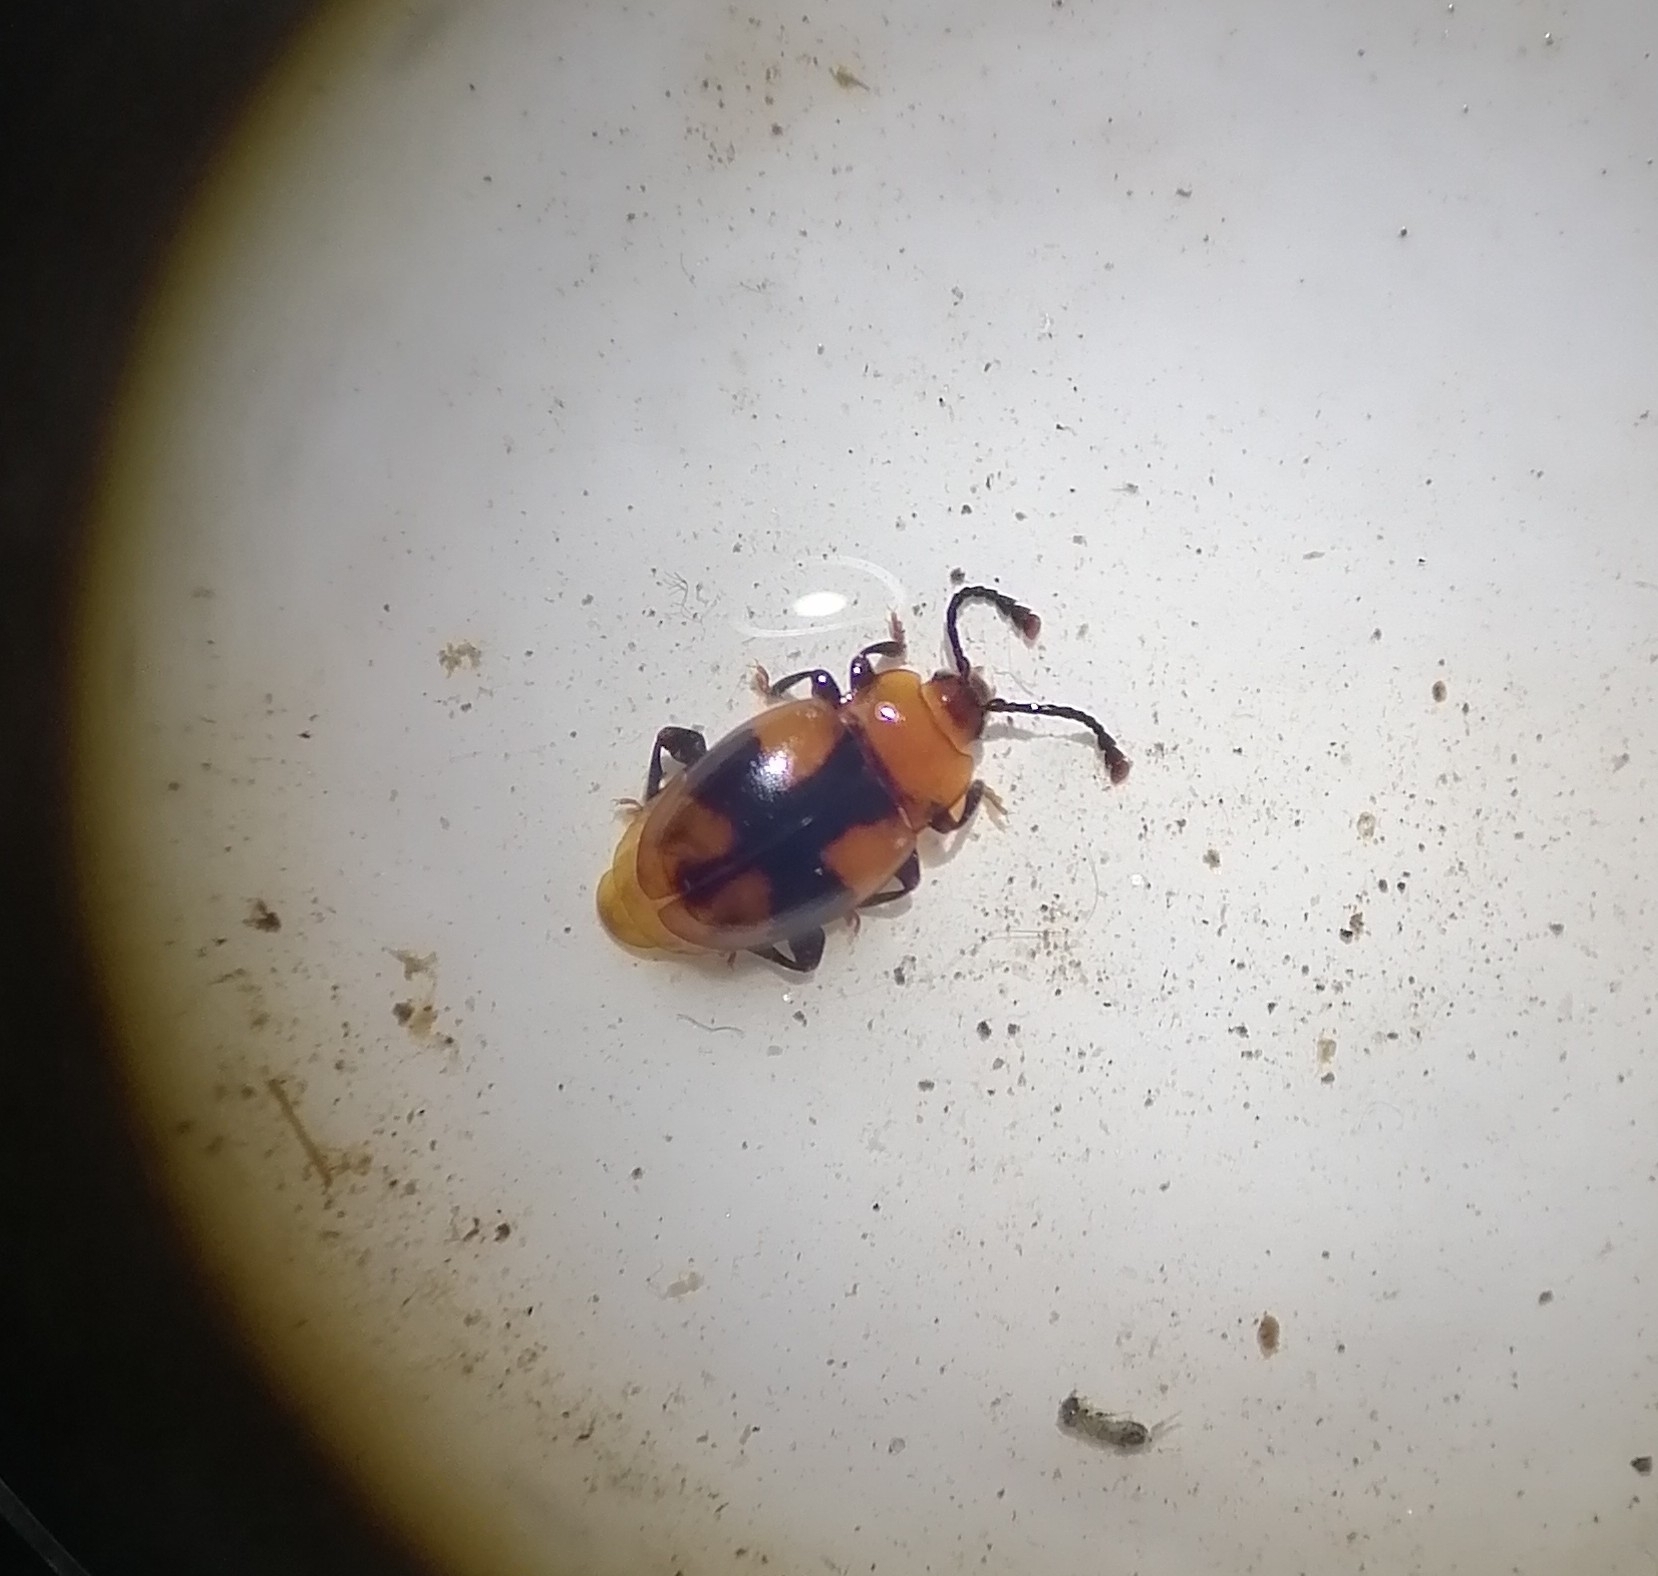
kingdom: Animalia
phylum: Arthropoda
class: Insecta
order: Coleoptera
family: Endomychidae
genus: Mycetina
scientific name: Mycetina cruciata
